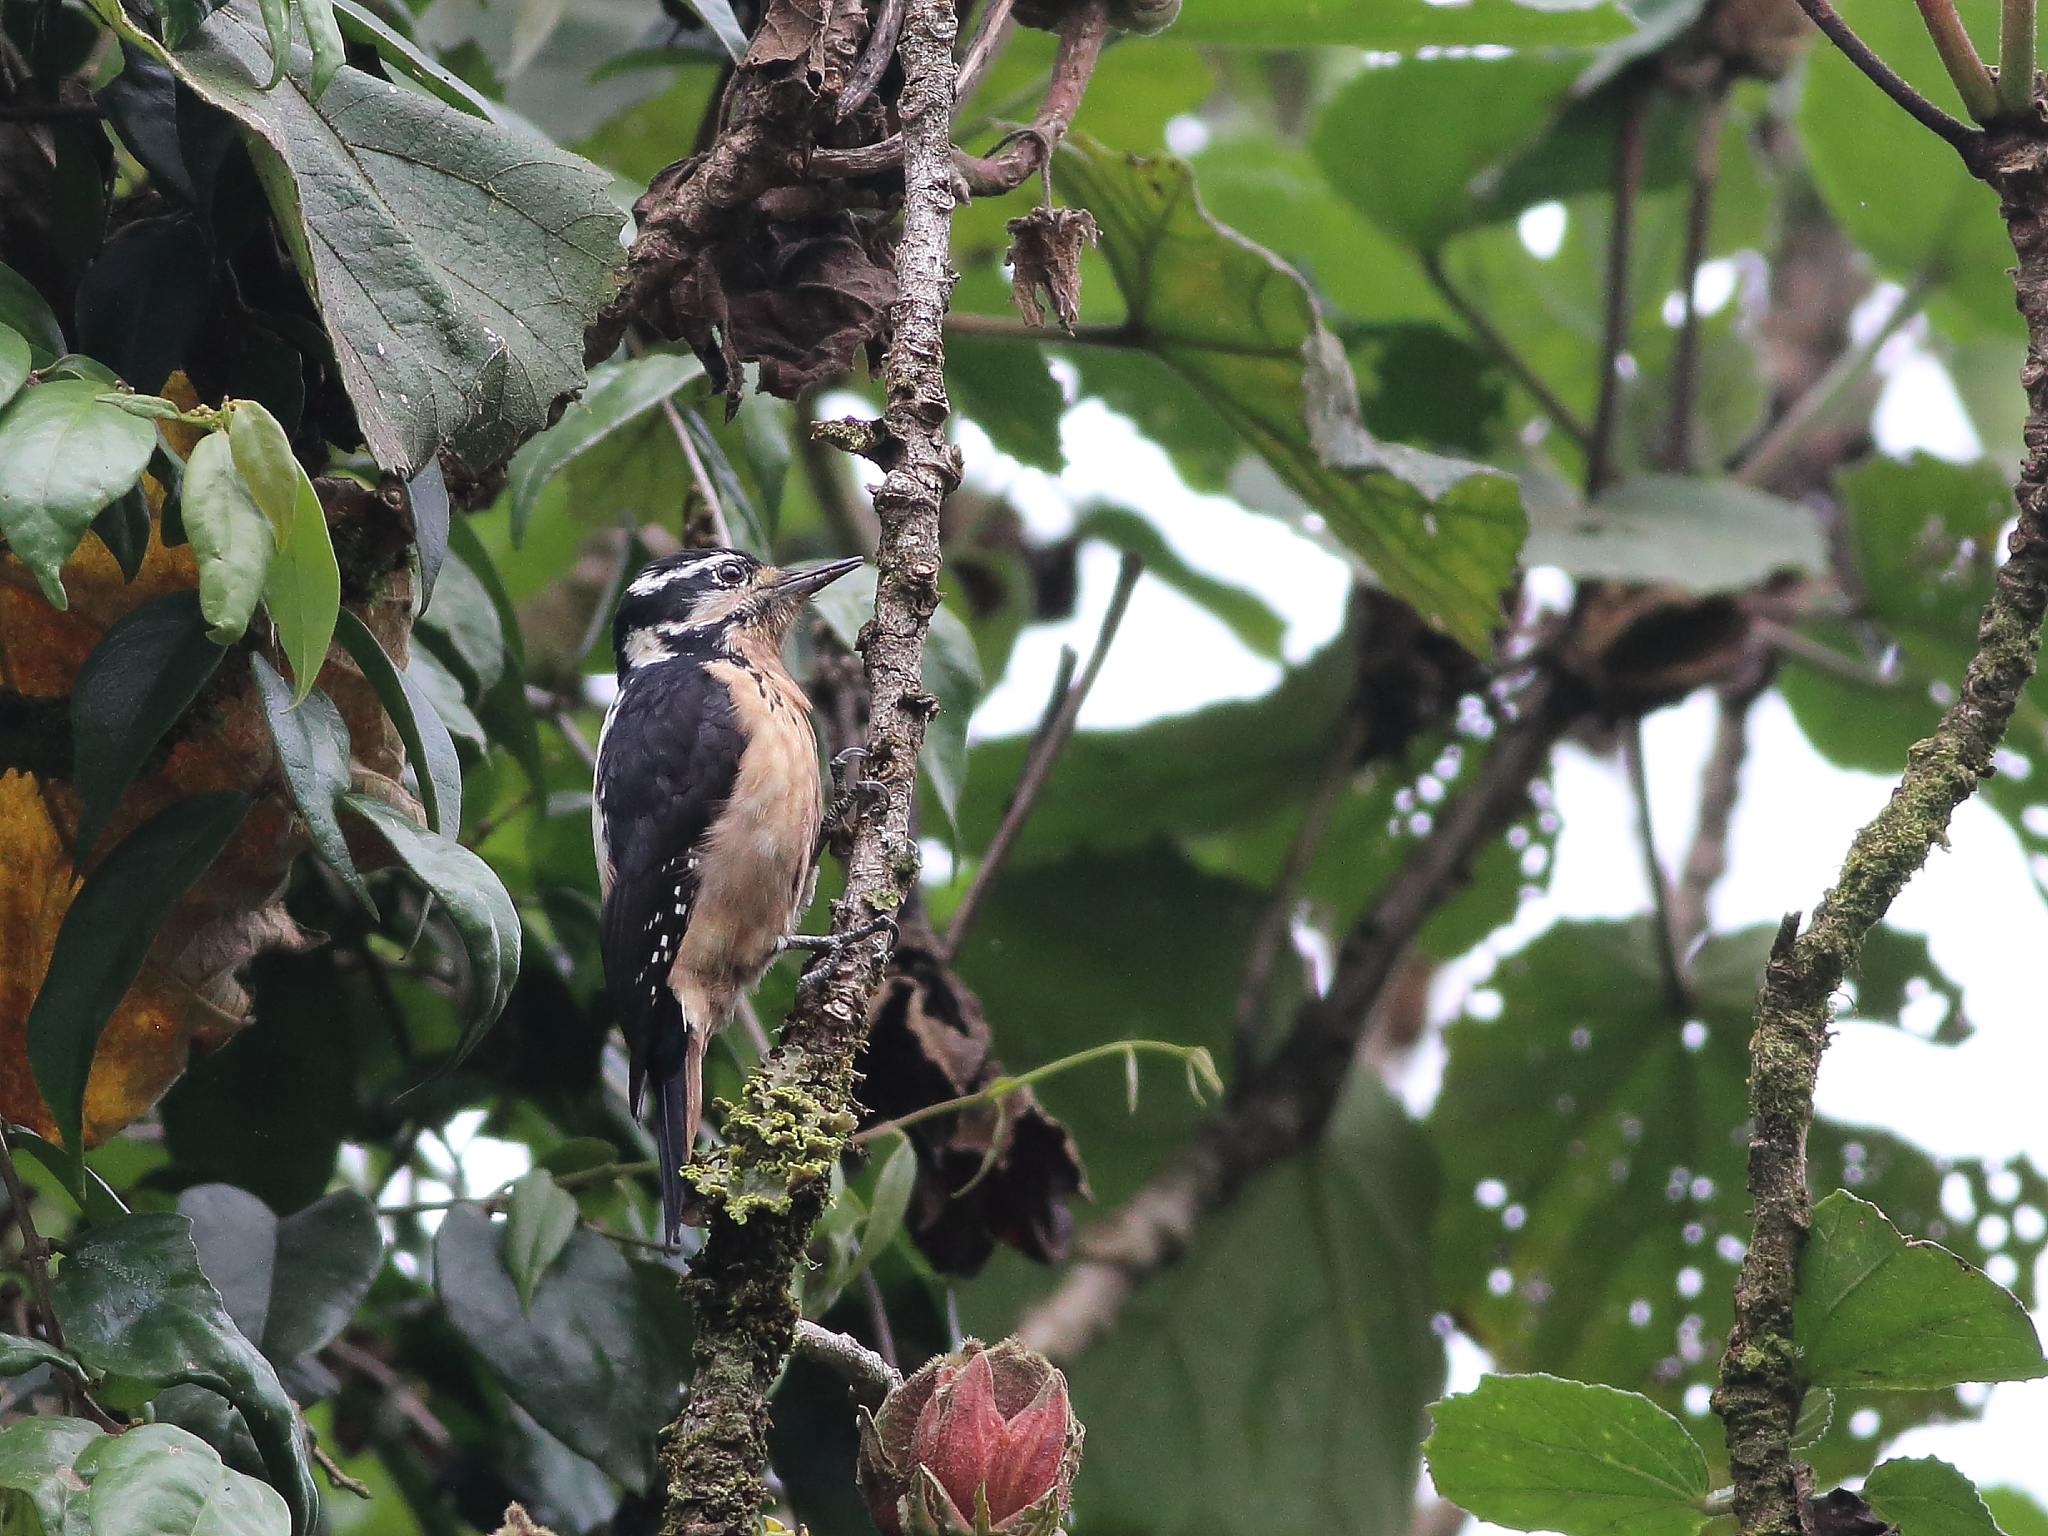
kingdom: Animalia
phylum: Chordata
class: Aves
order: Piciformes
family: Picidae
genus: Leuconotopicus
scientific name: Leuconotopicus villosus
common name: Hairy woodpecker
